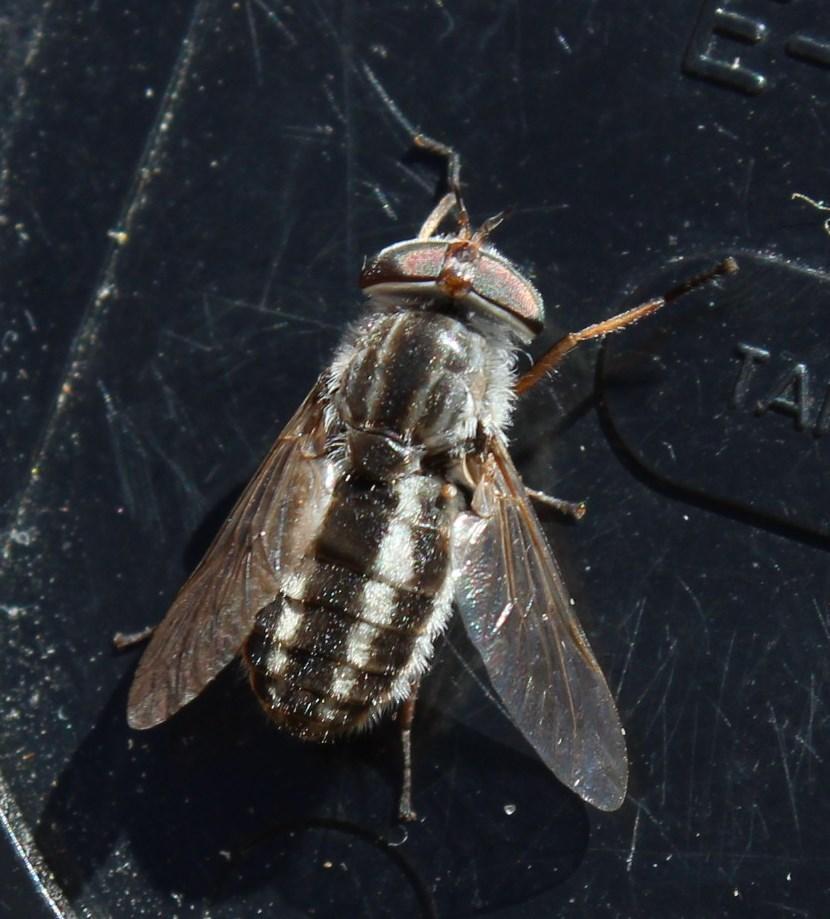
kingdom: Animalia
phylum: Arthropoda
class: Insecta
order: Diptera
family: Tabanidae
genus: Tabanus
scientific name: Tabanus taeniatus
